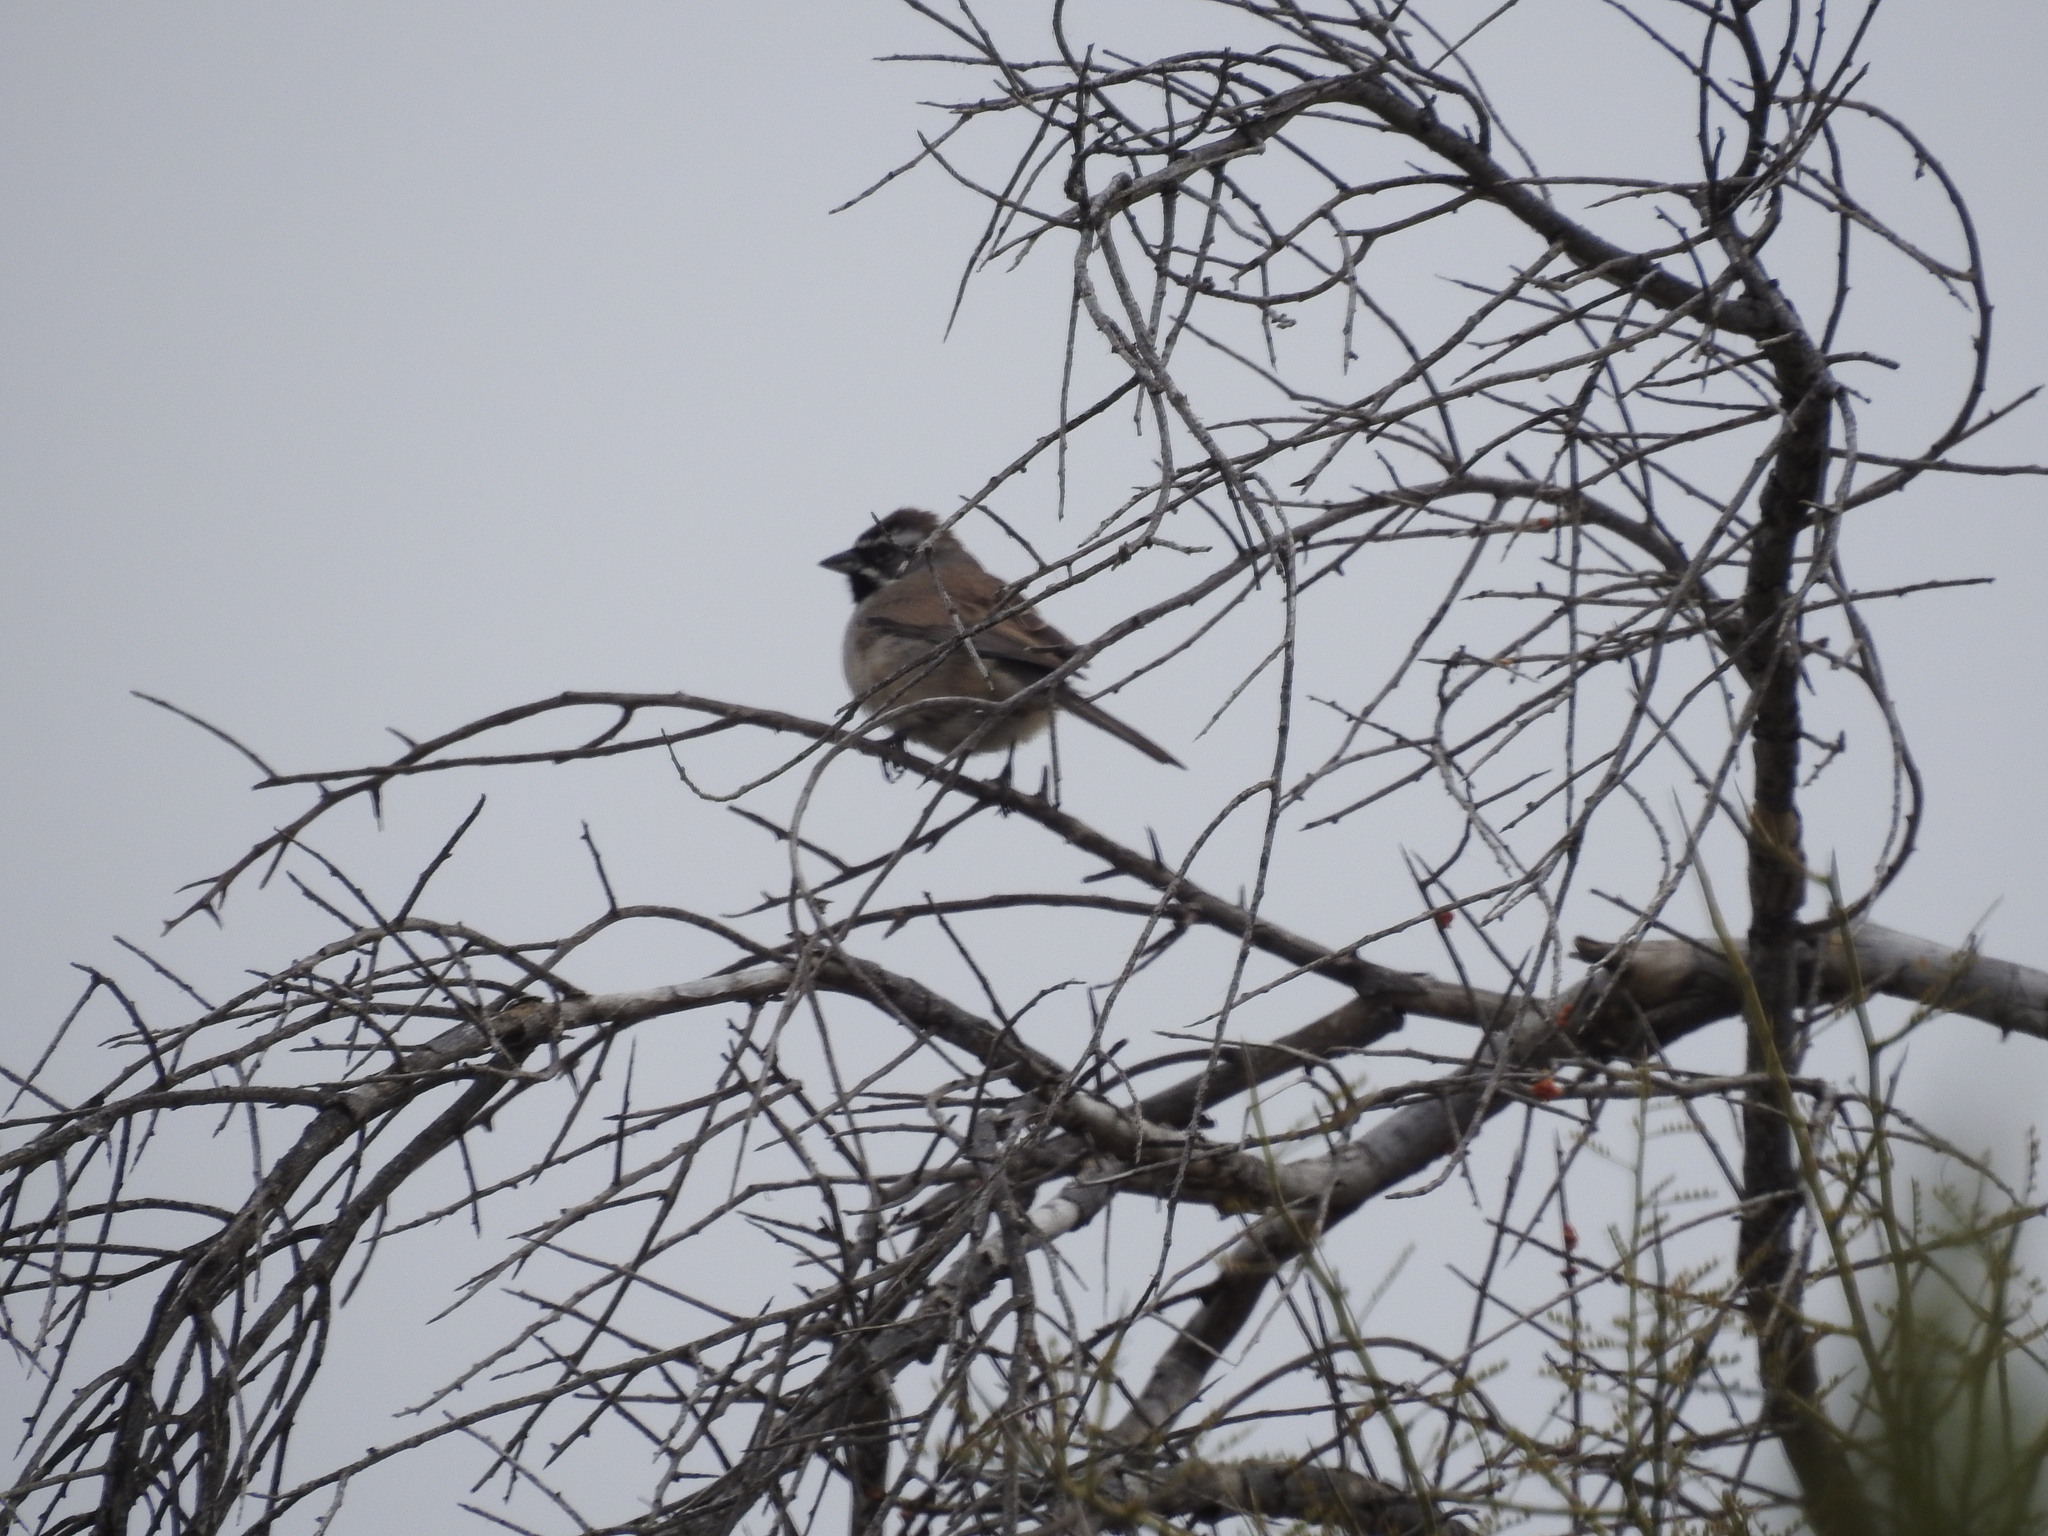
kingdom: Animalia
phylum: Chordata
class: Aves
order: Passeriformes
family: Passerellidae
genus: Amphispiza
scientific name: Amphispiza bilineata
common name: Black-throated sparrow
